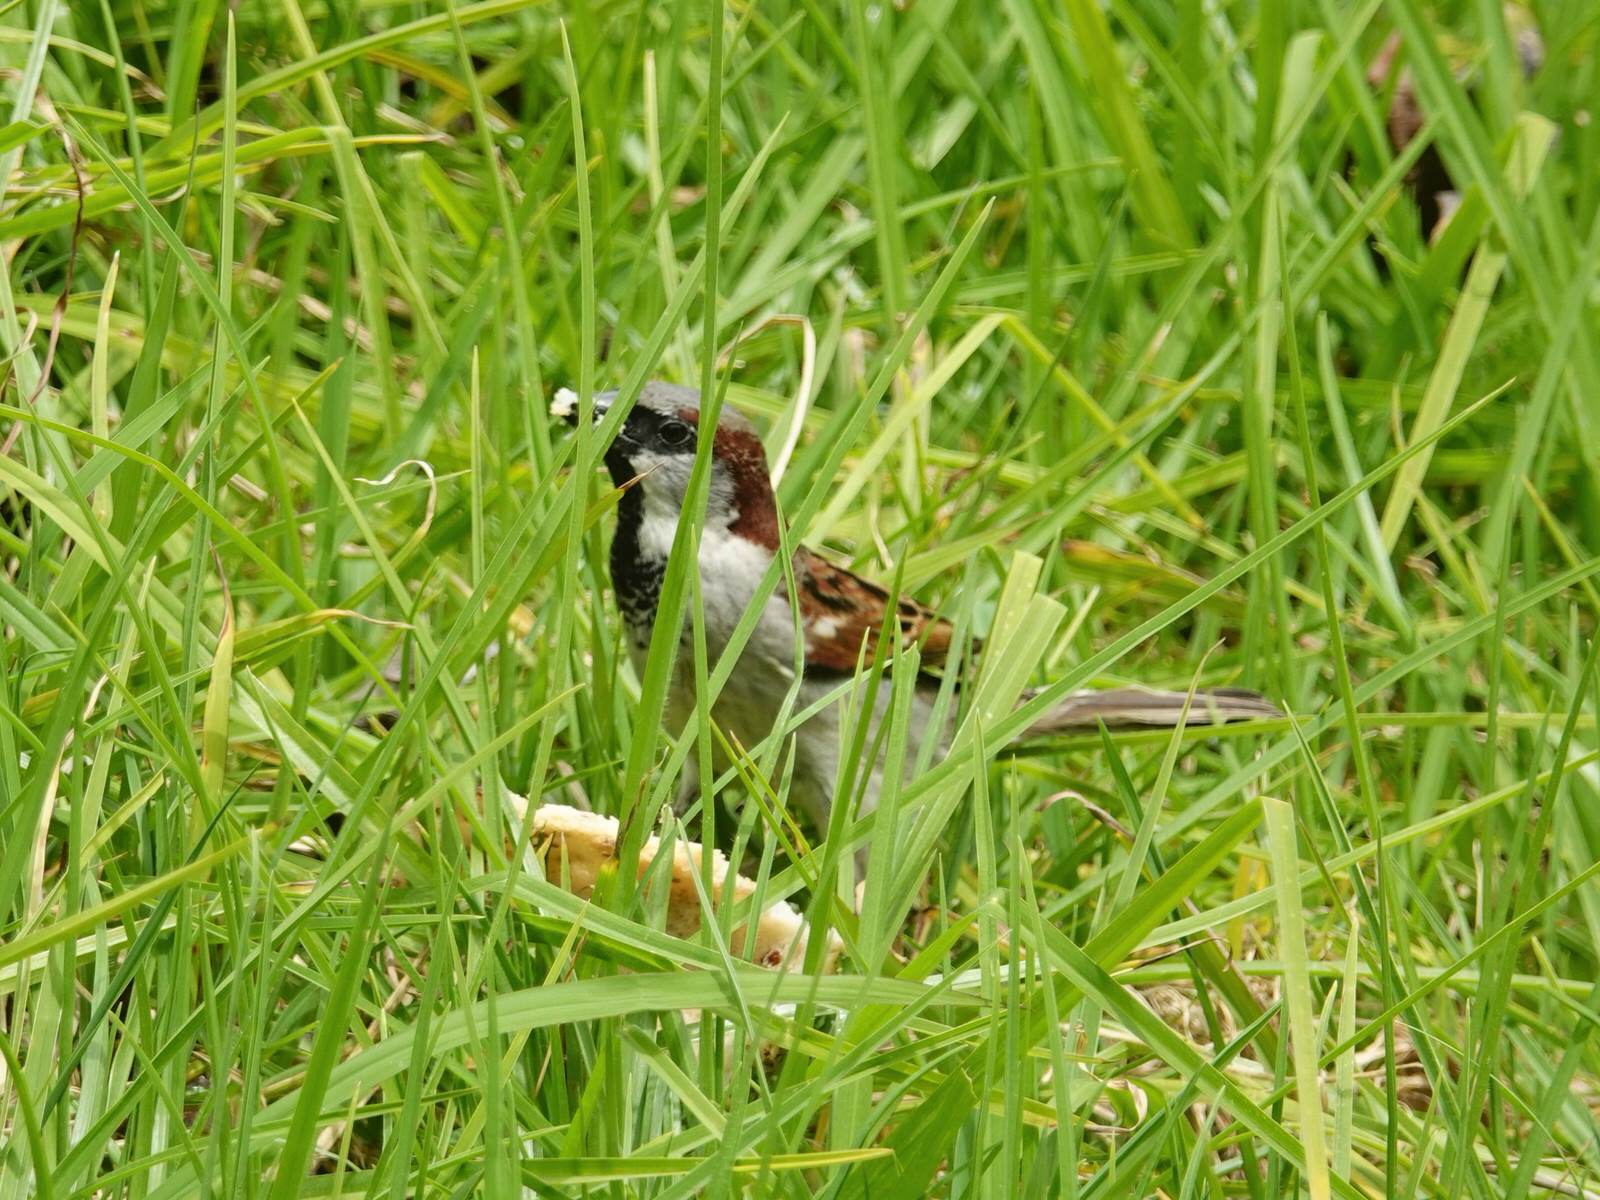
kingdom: Animalia
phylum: Chordata
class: Aves
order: Passeriformes
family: Passeridae
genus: Passer
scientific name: Passer domesticus
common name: House sparrow
